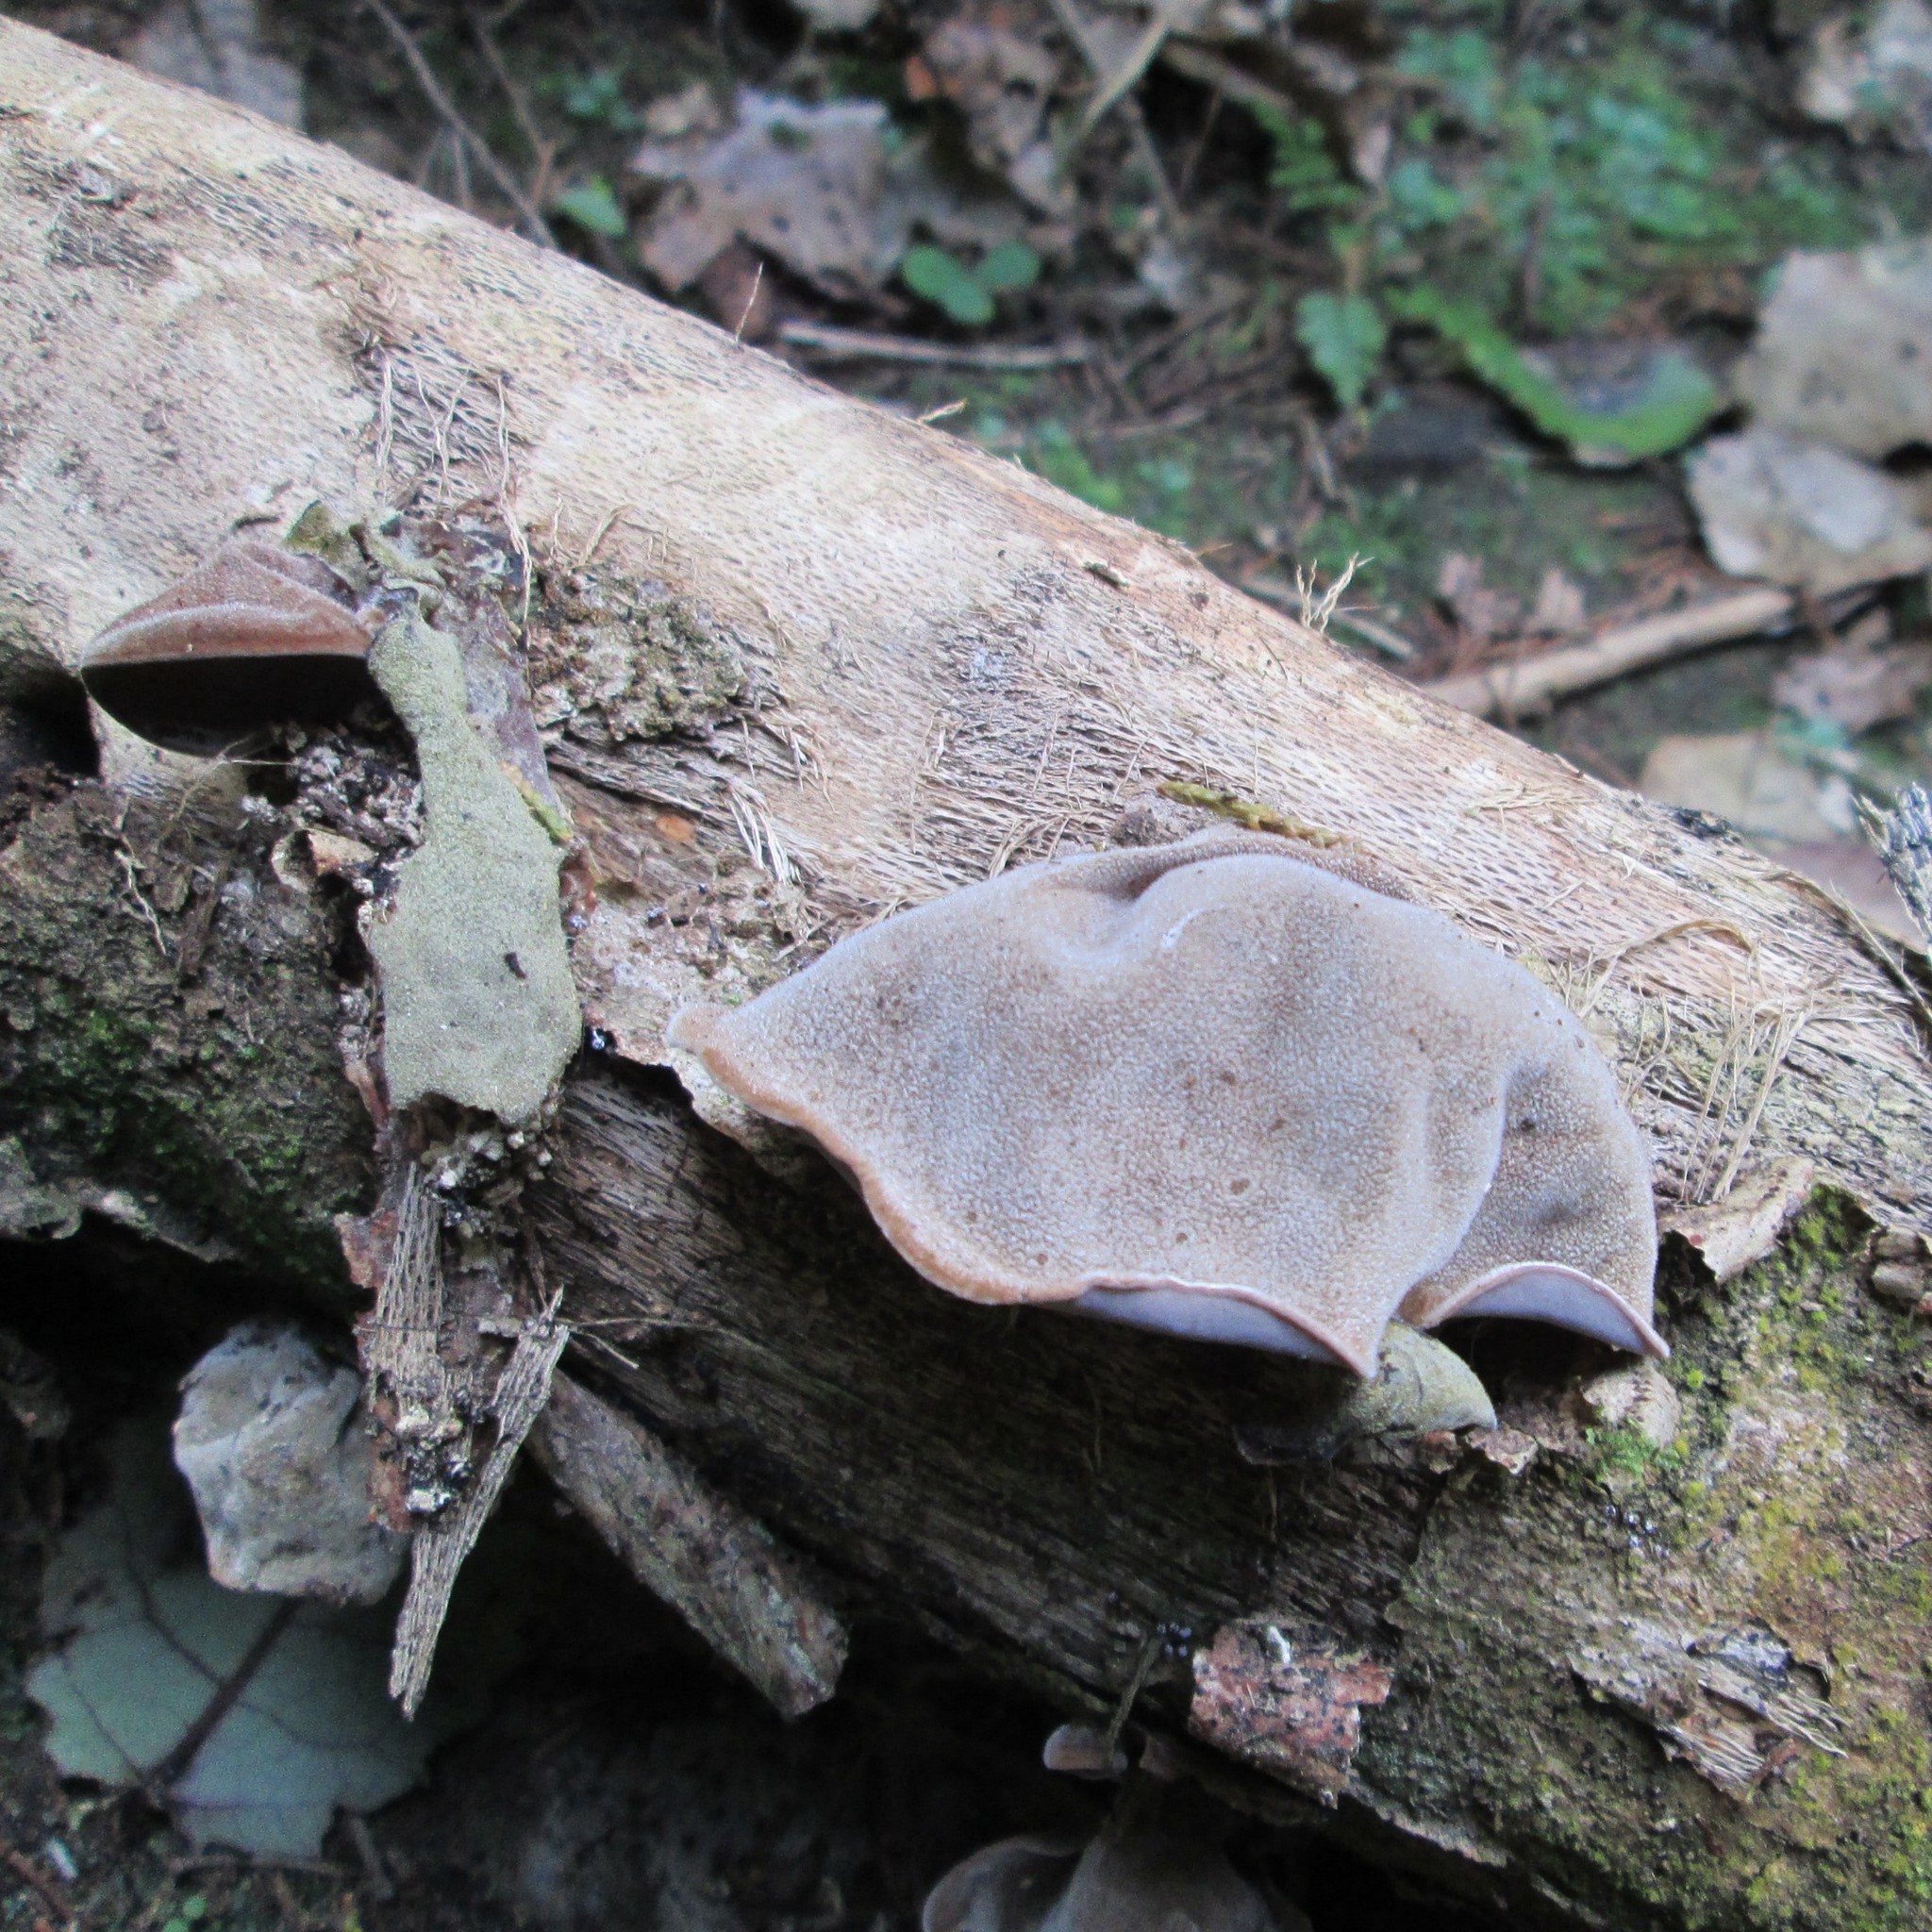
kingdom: Fungi
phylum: Basidiomycota
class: Agaricomycetes
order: Auriculariales
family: Auriculariaceae
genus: Auricularia
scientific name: Auricularia cornea
